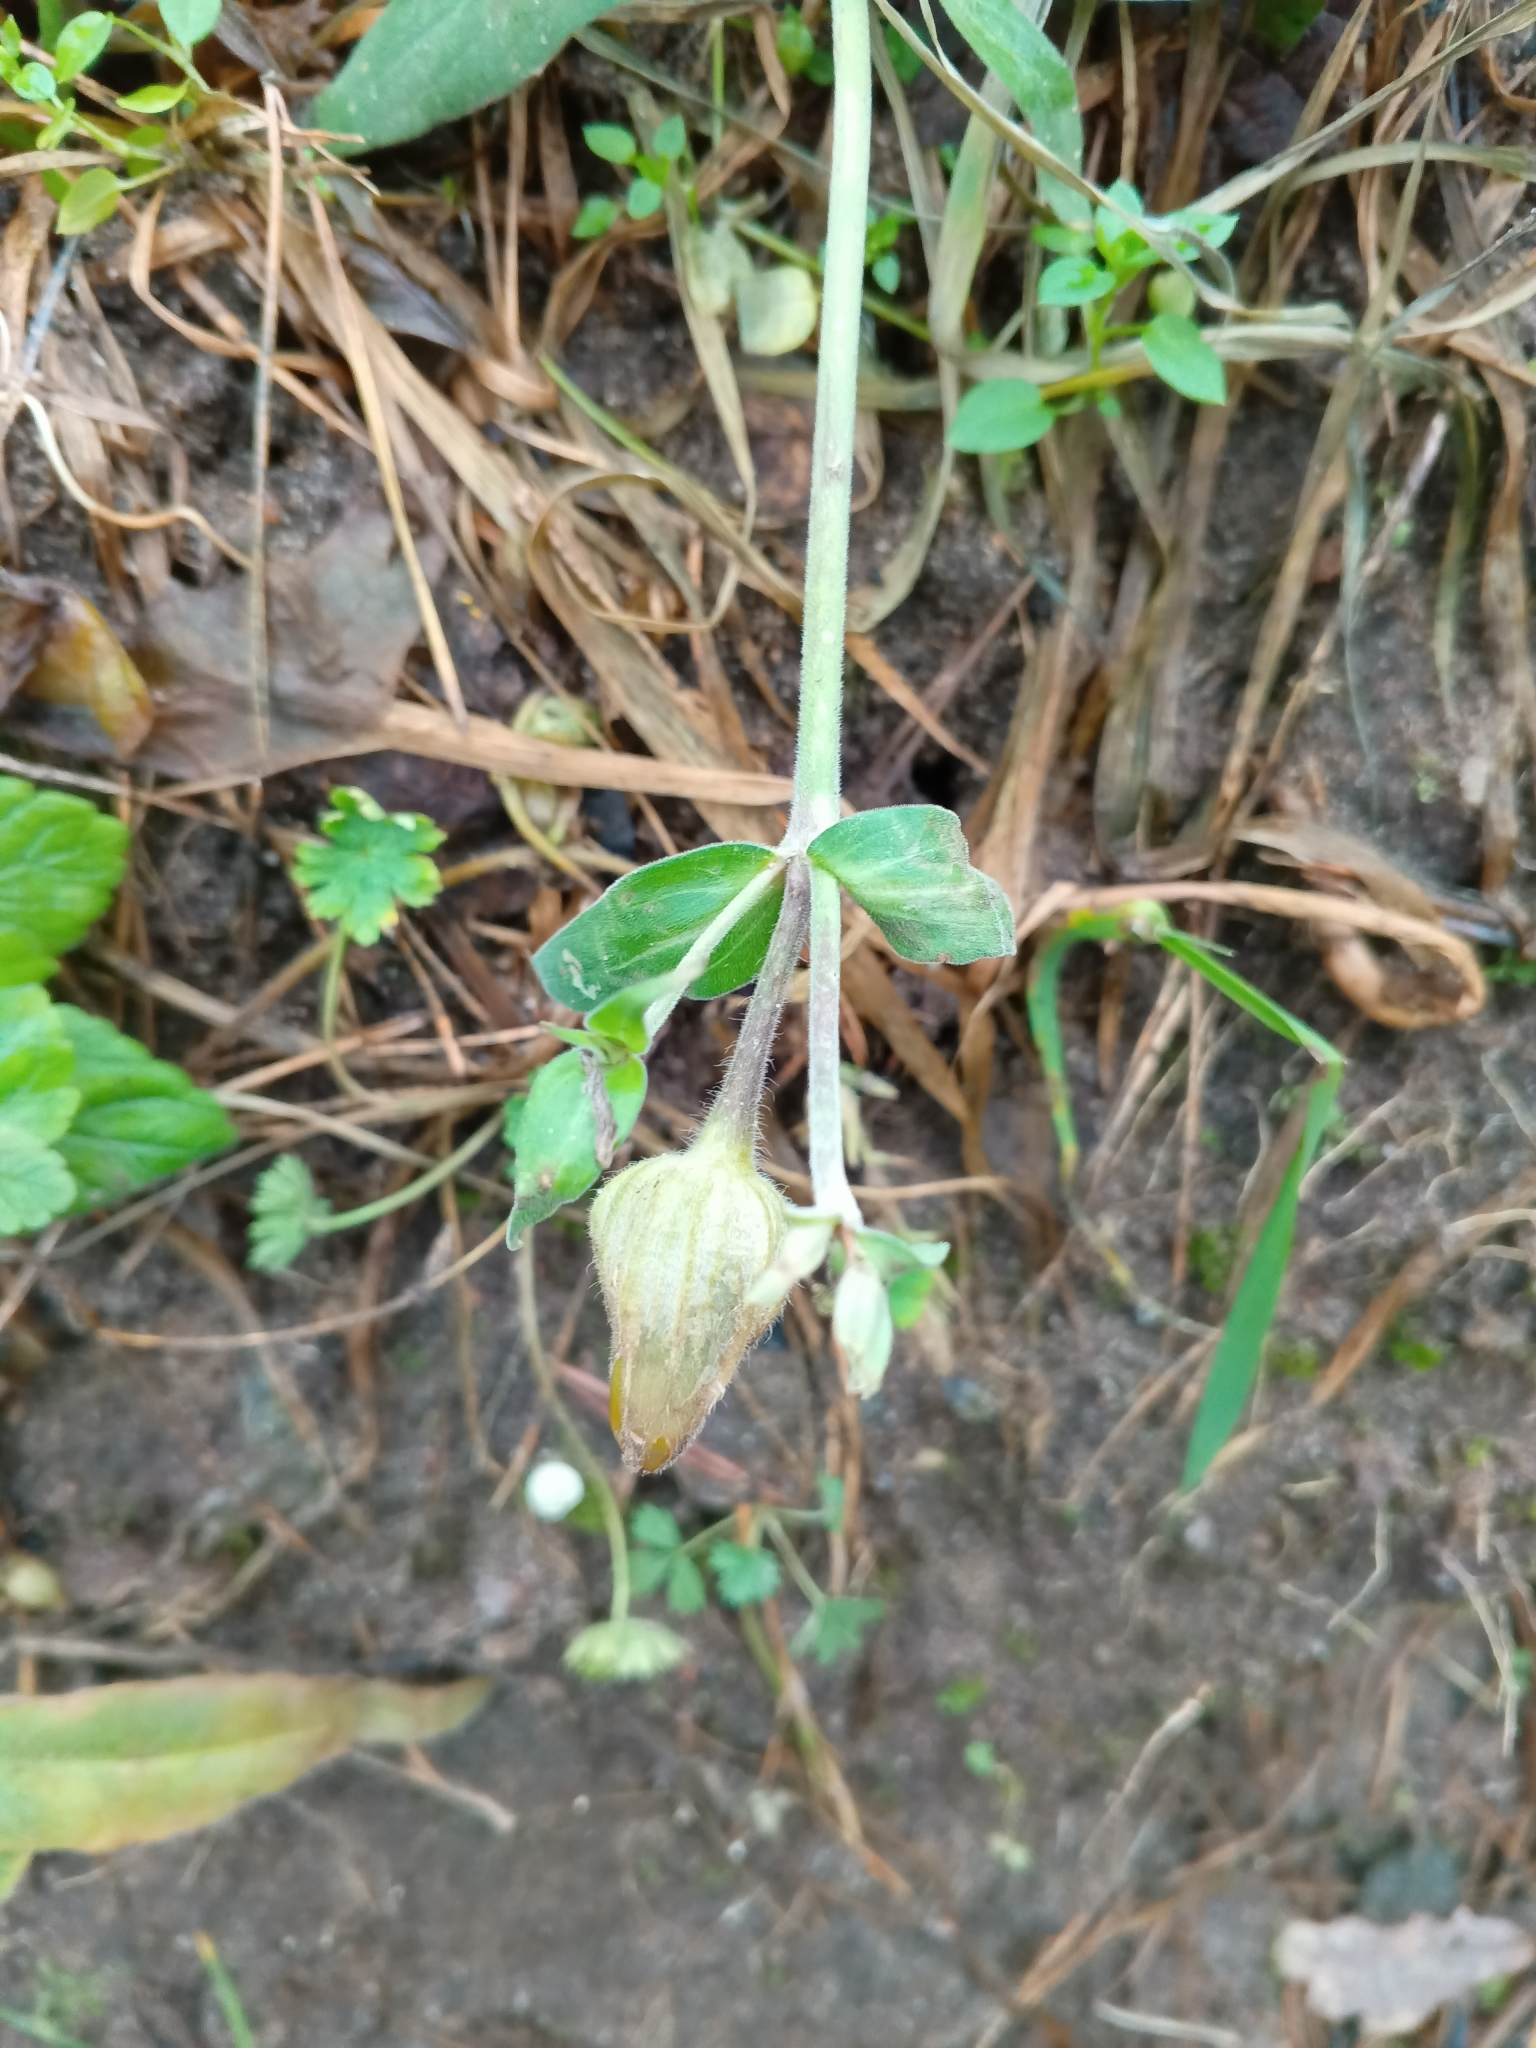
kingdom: Plantae
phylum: Tracheophyta
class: Magnoliopsida
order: Caryophyllales
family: Caryophyllaceae
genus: Silene
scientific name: Silene latifolia
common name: White campion
